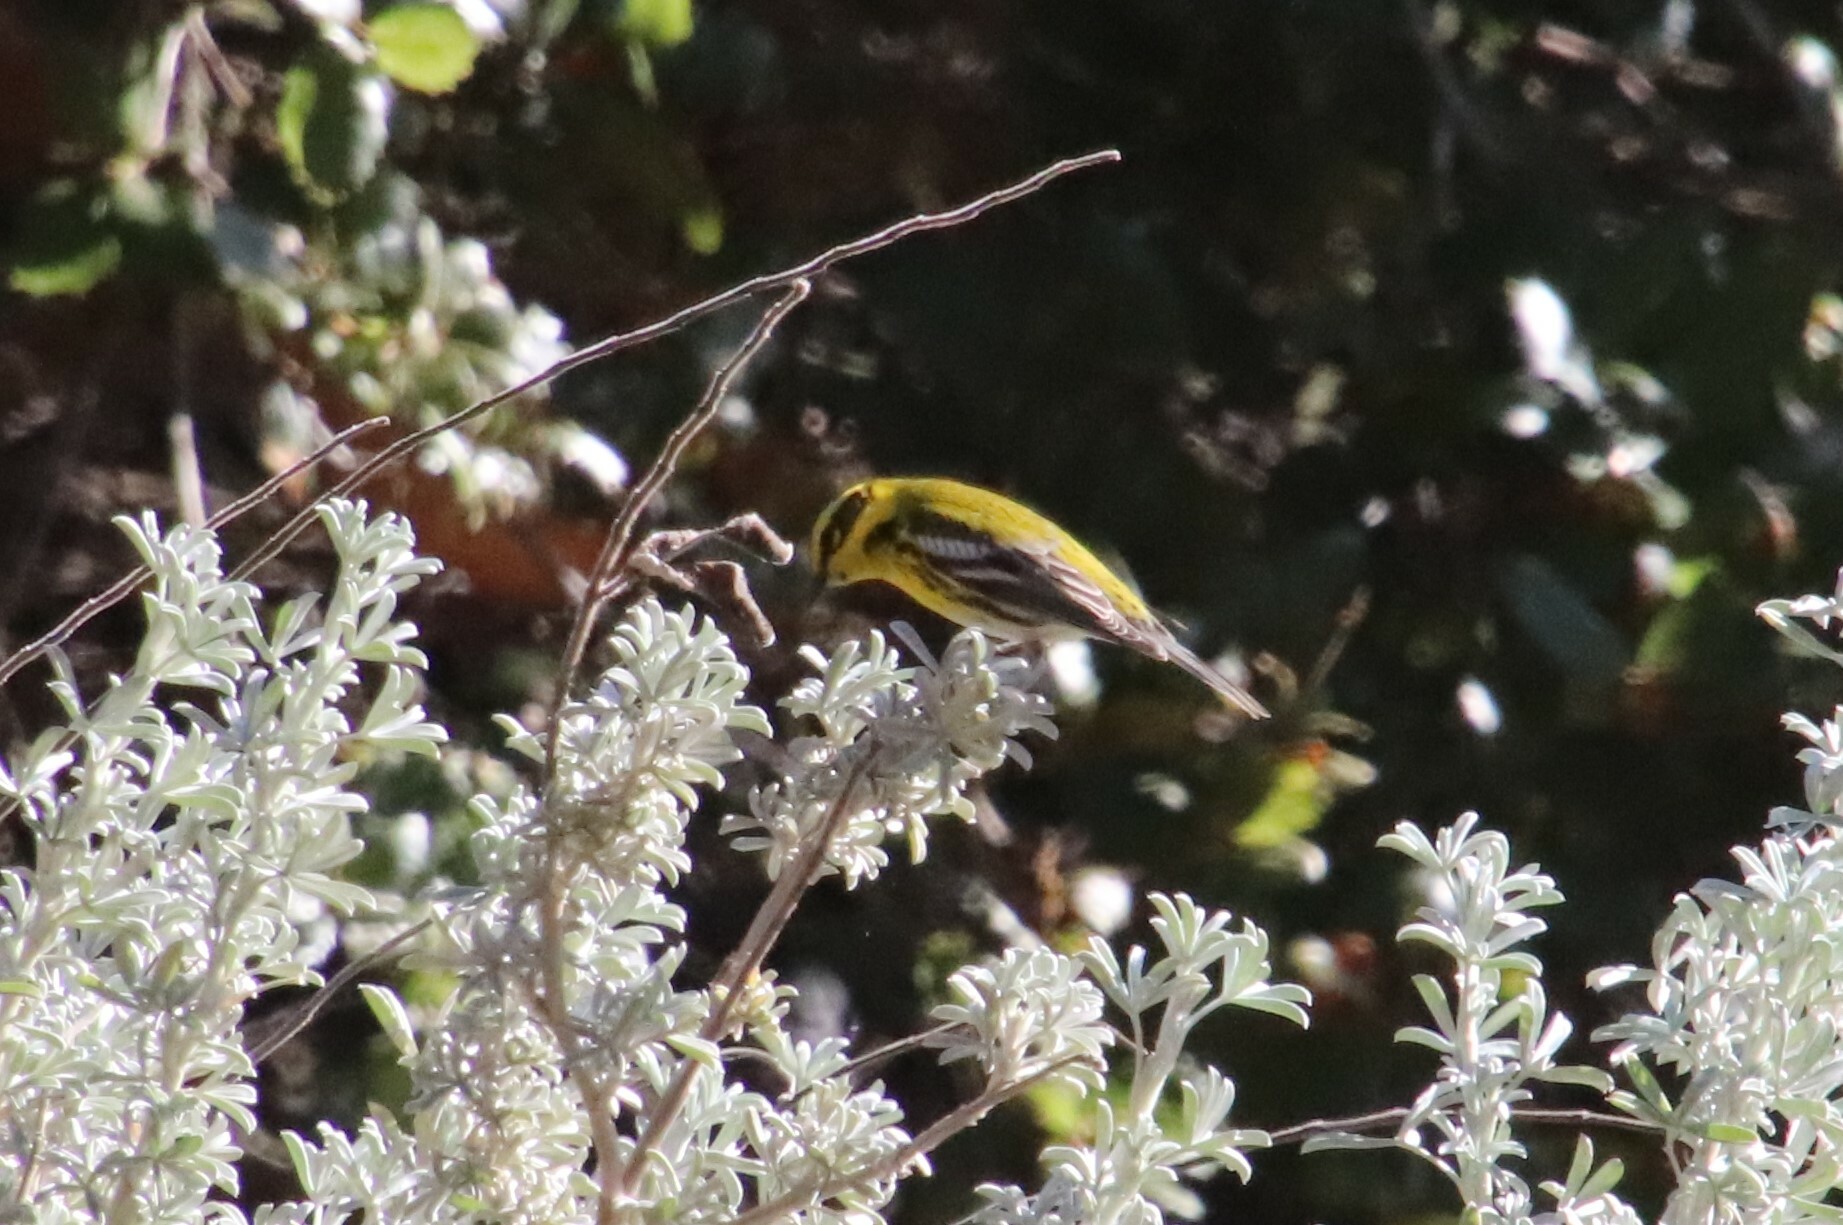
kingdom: Animalia
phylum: Chordata
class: Aves
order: Passeriformes
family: Parulidae
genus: Setophaga
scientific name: Setophaga townsendi
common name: Townsend's warbler
